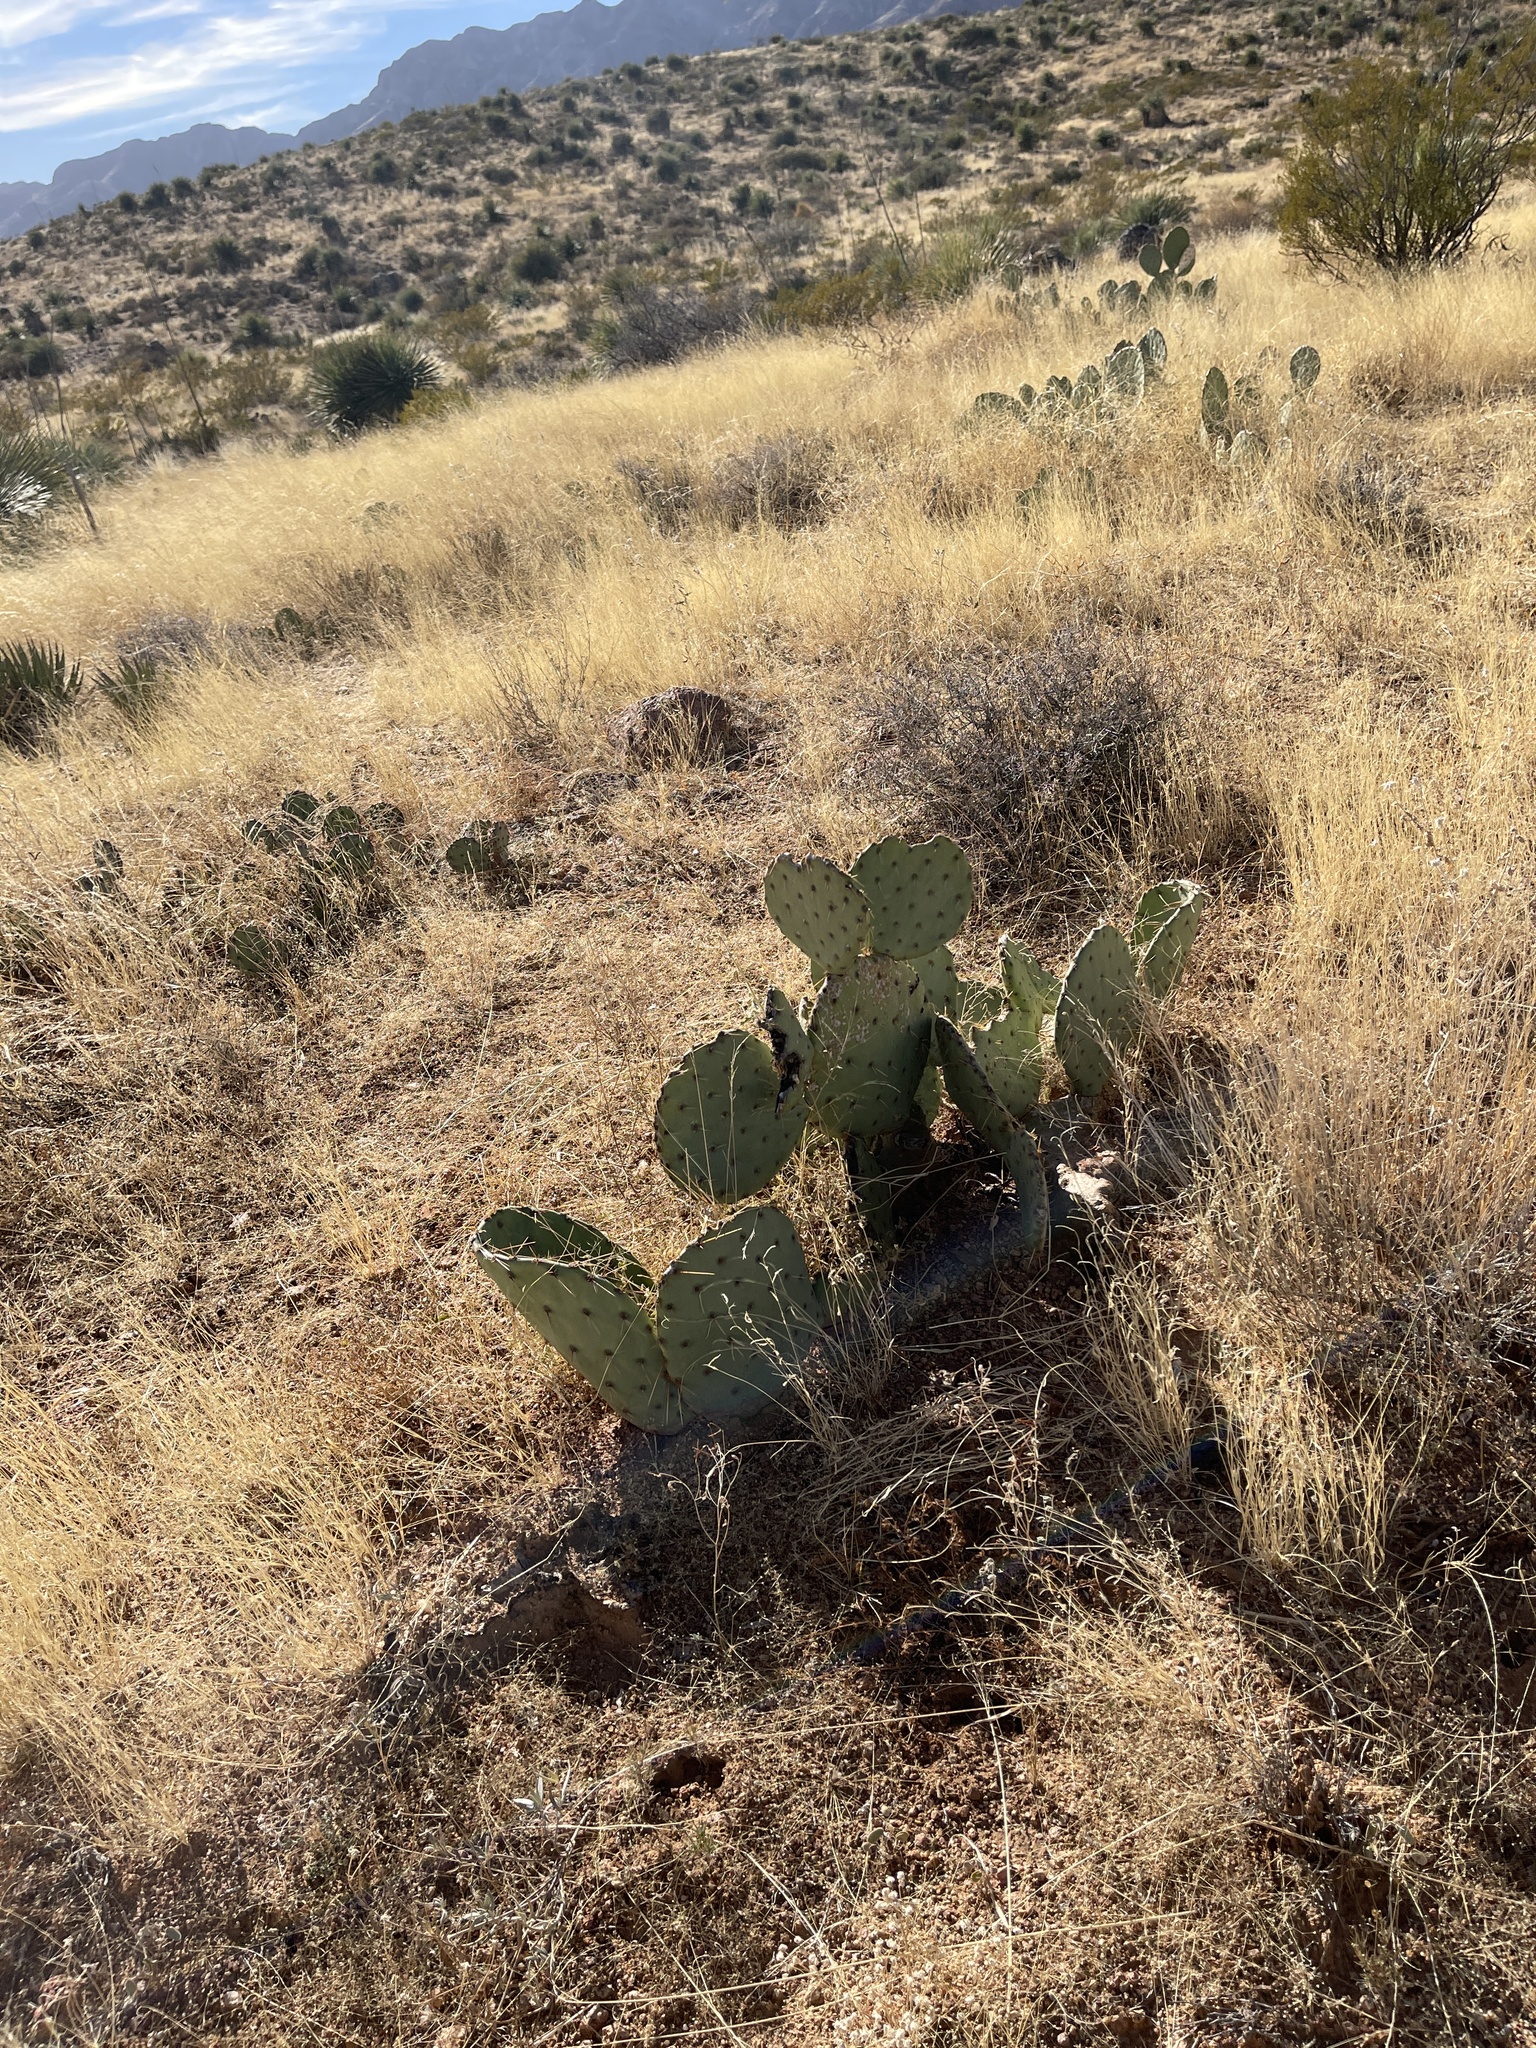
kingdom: Plantae
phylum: Tracheophyta
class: Magnoliopsida
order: Caryophyllales
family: Cactaceae
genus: Opuntia
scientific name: Opuntia engelmannii
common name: Cactus-apple
